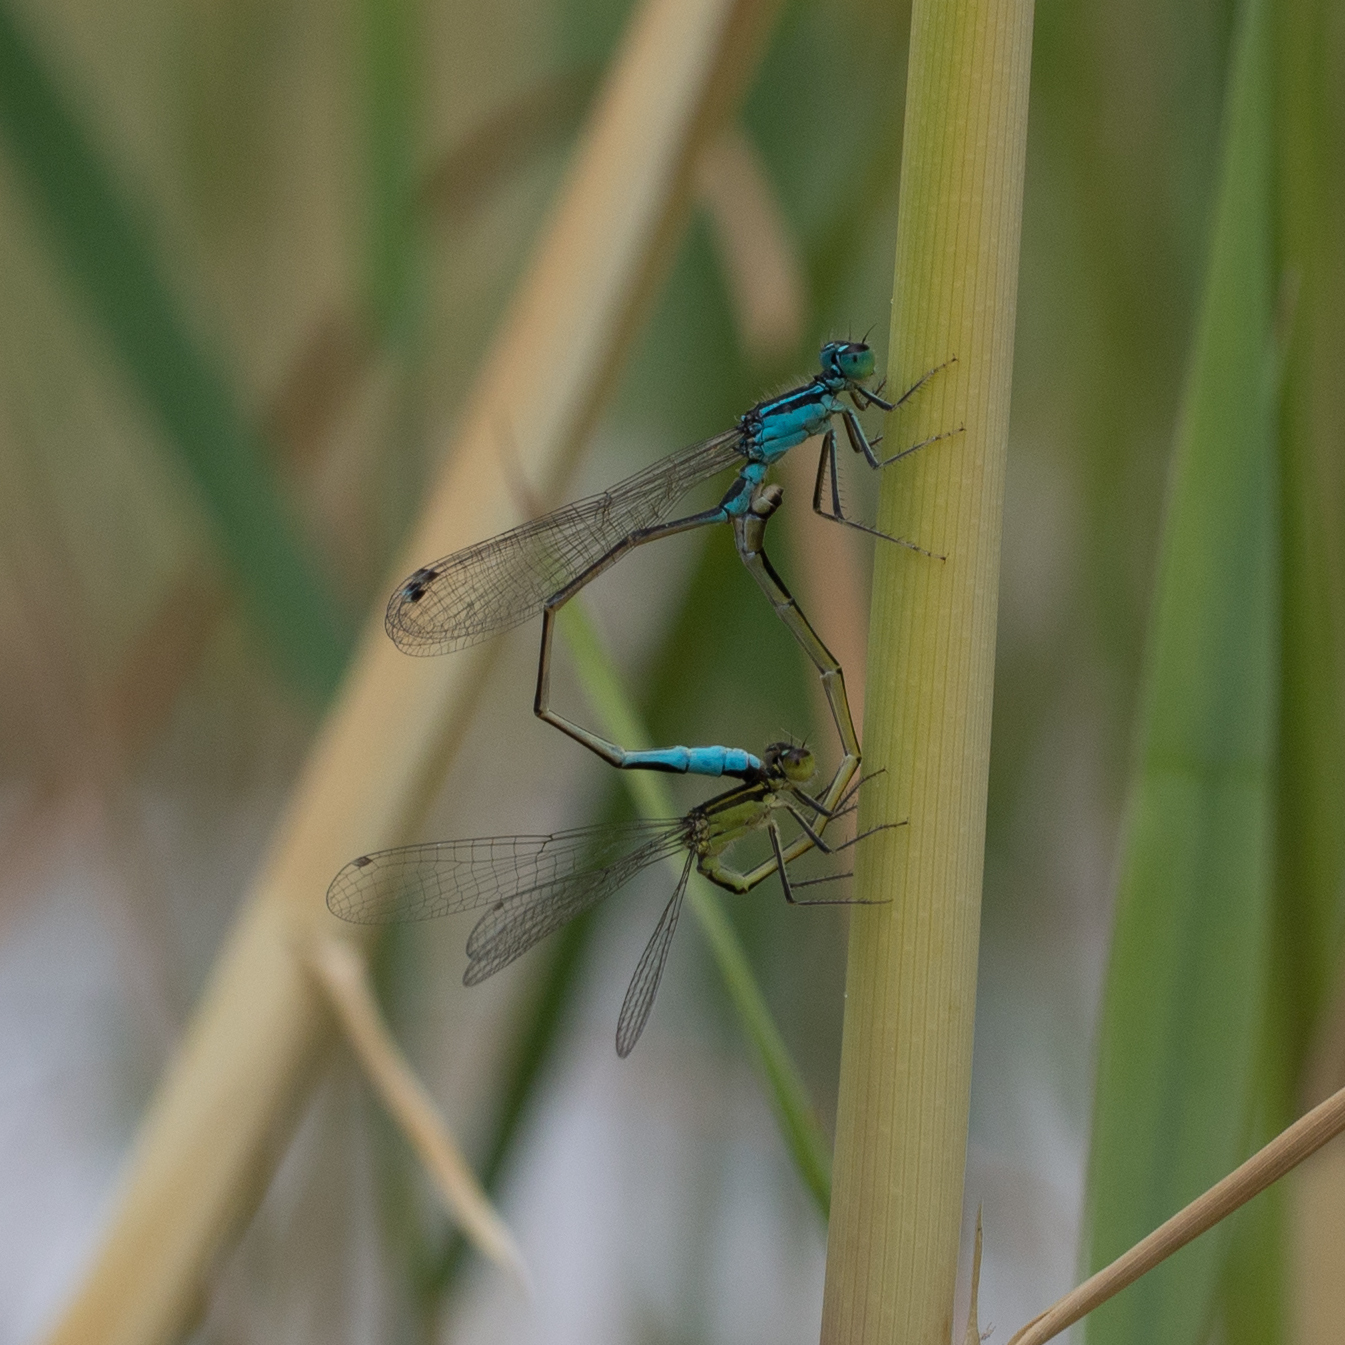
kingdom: Animalia
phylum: Arthropoda
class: Insecta
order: Odonata
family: Coenagrionidae
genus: Ischnura
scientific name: Ischnura elegans
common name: Blue-tailed damselfly
